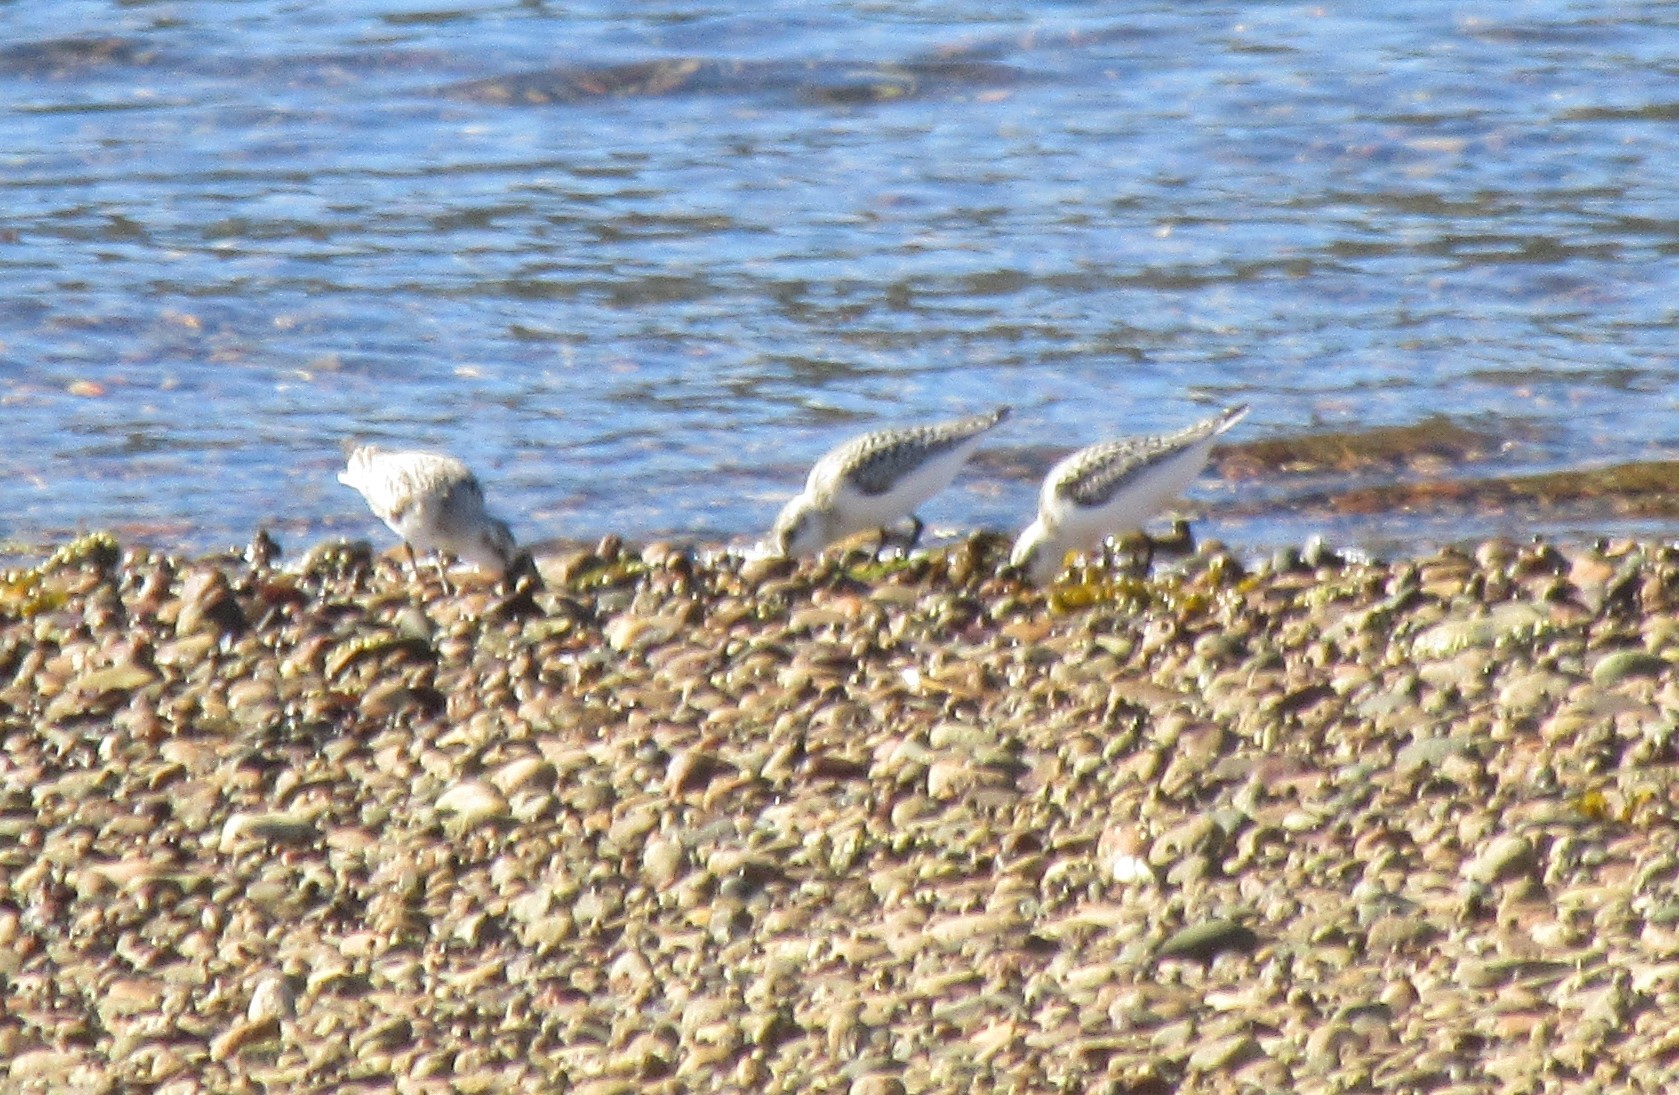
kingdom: Animalia
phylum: Chordata
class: Aves
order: Charadriiformes
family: Scolopacidae
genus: Calidris
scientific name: Calidris alba
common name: Sanderling
